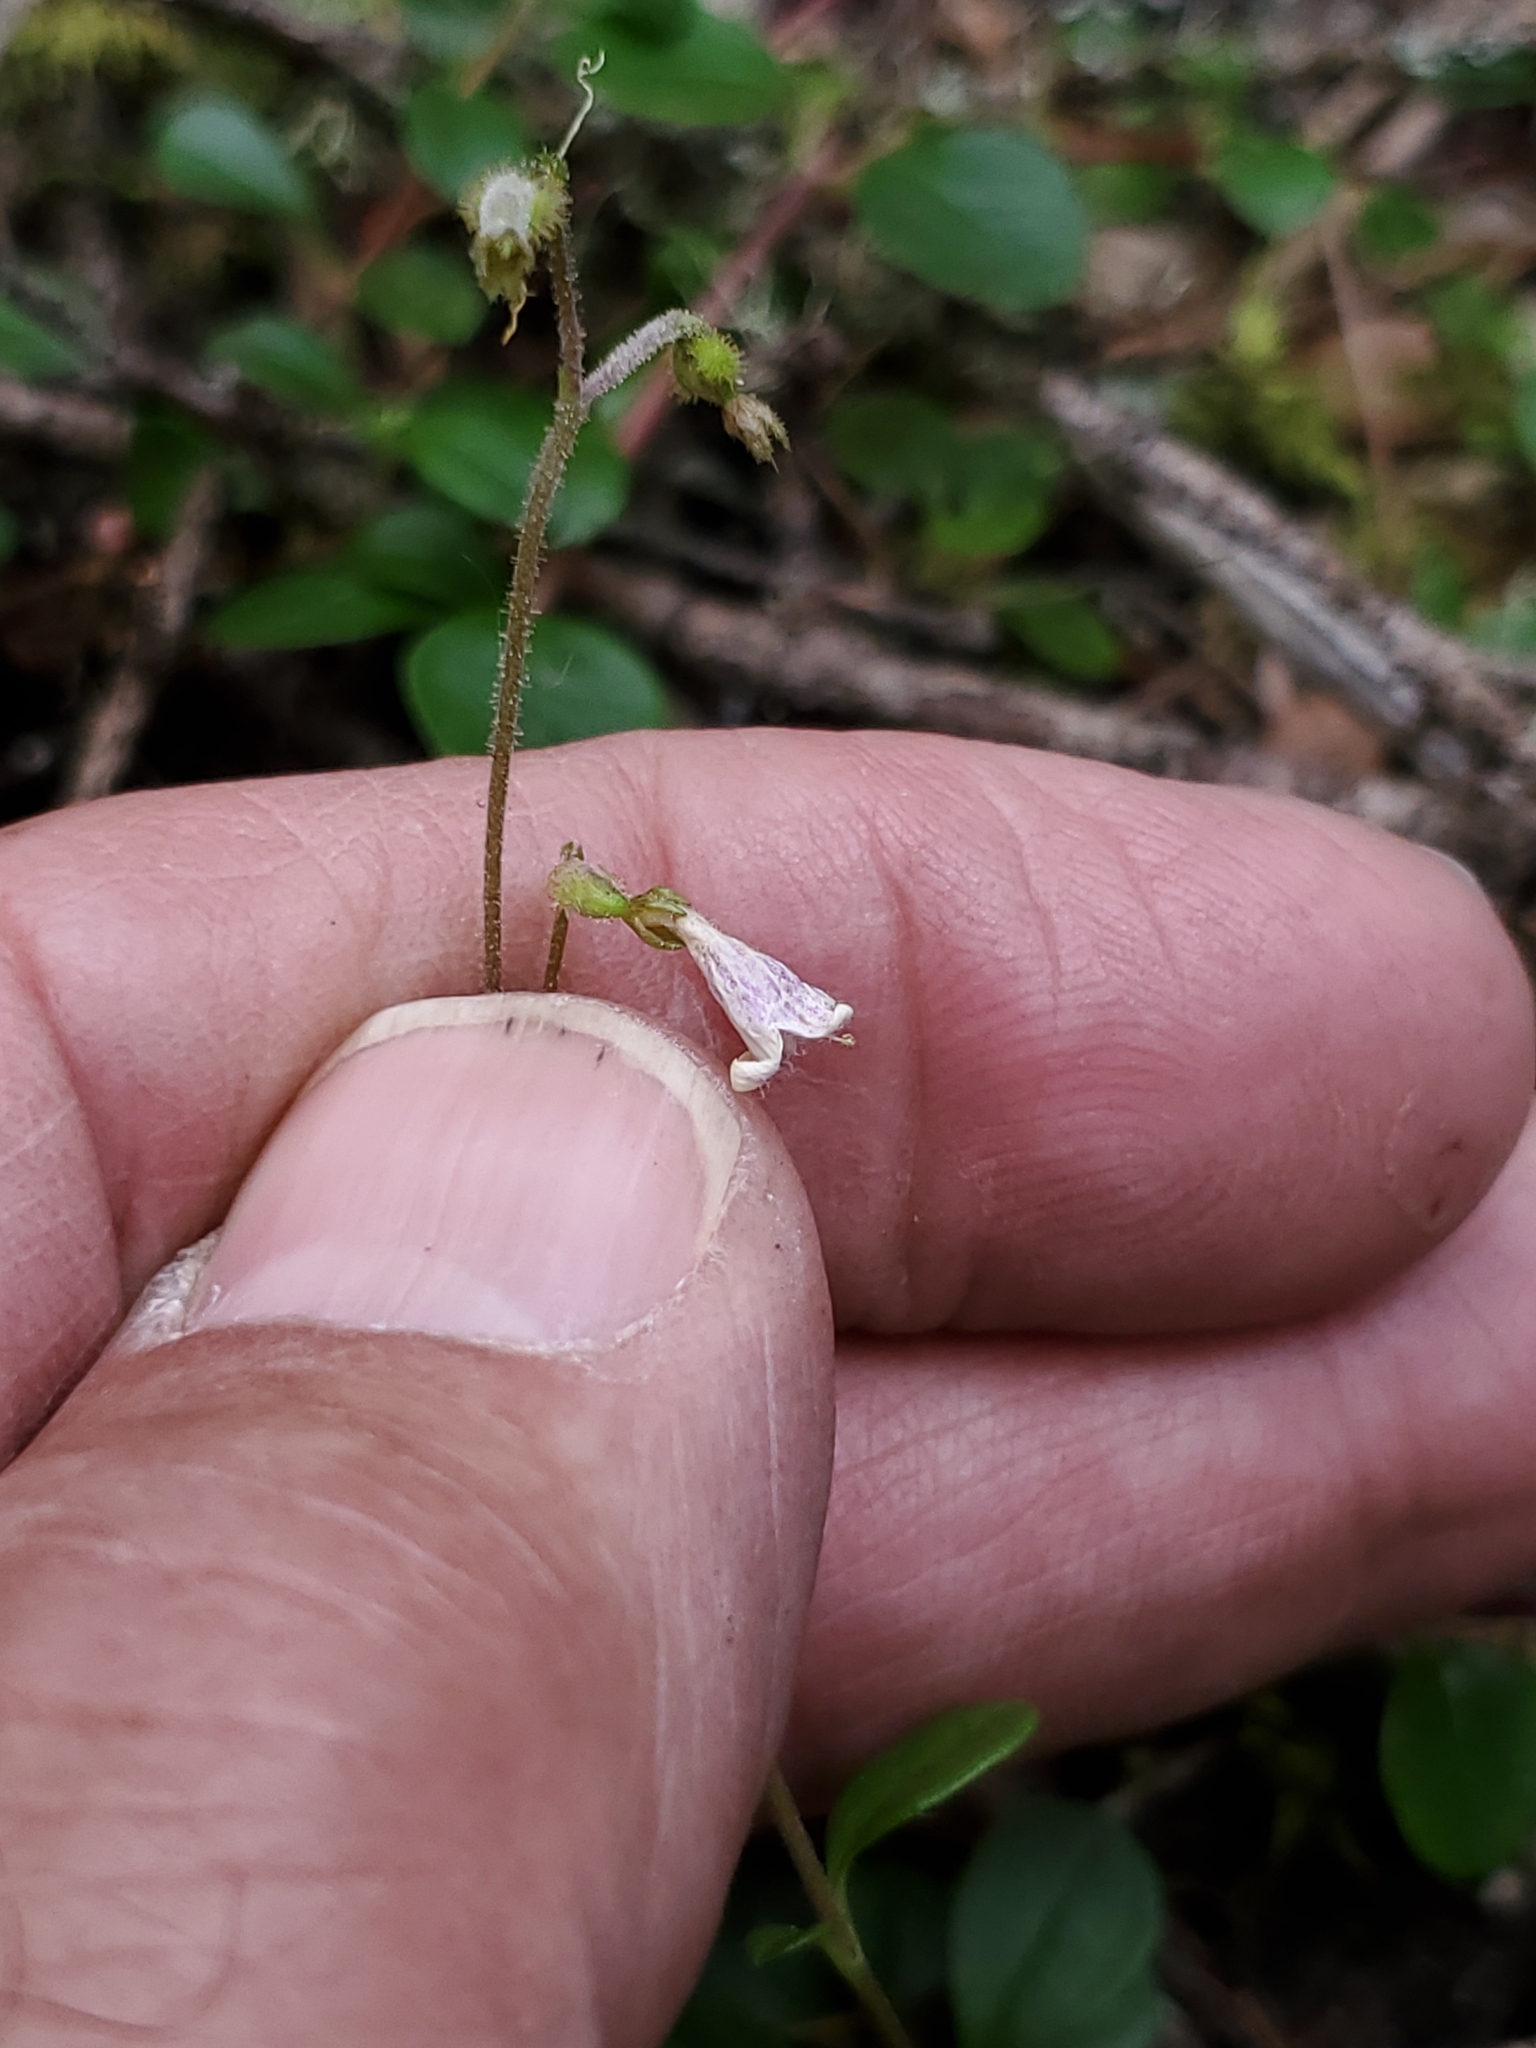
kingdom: Plantae
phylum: Tracheophyta
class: Magnoliopsida
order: Dipsacales
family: Caprifoliaceae
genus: Linnaea
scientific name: Linnaea borealis
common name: Twinflower
